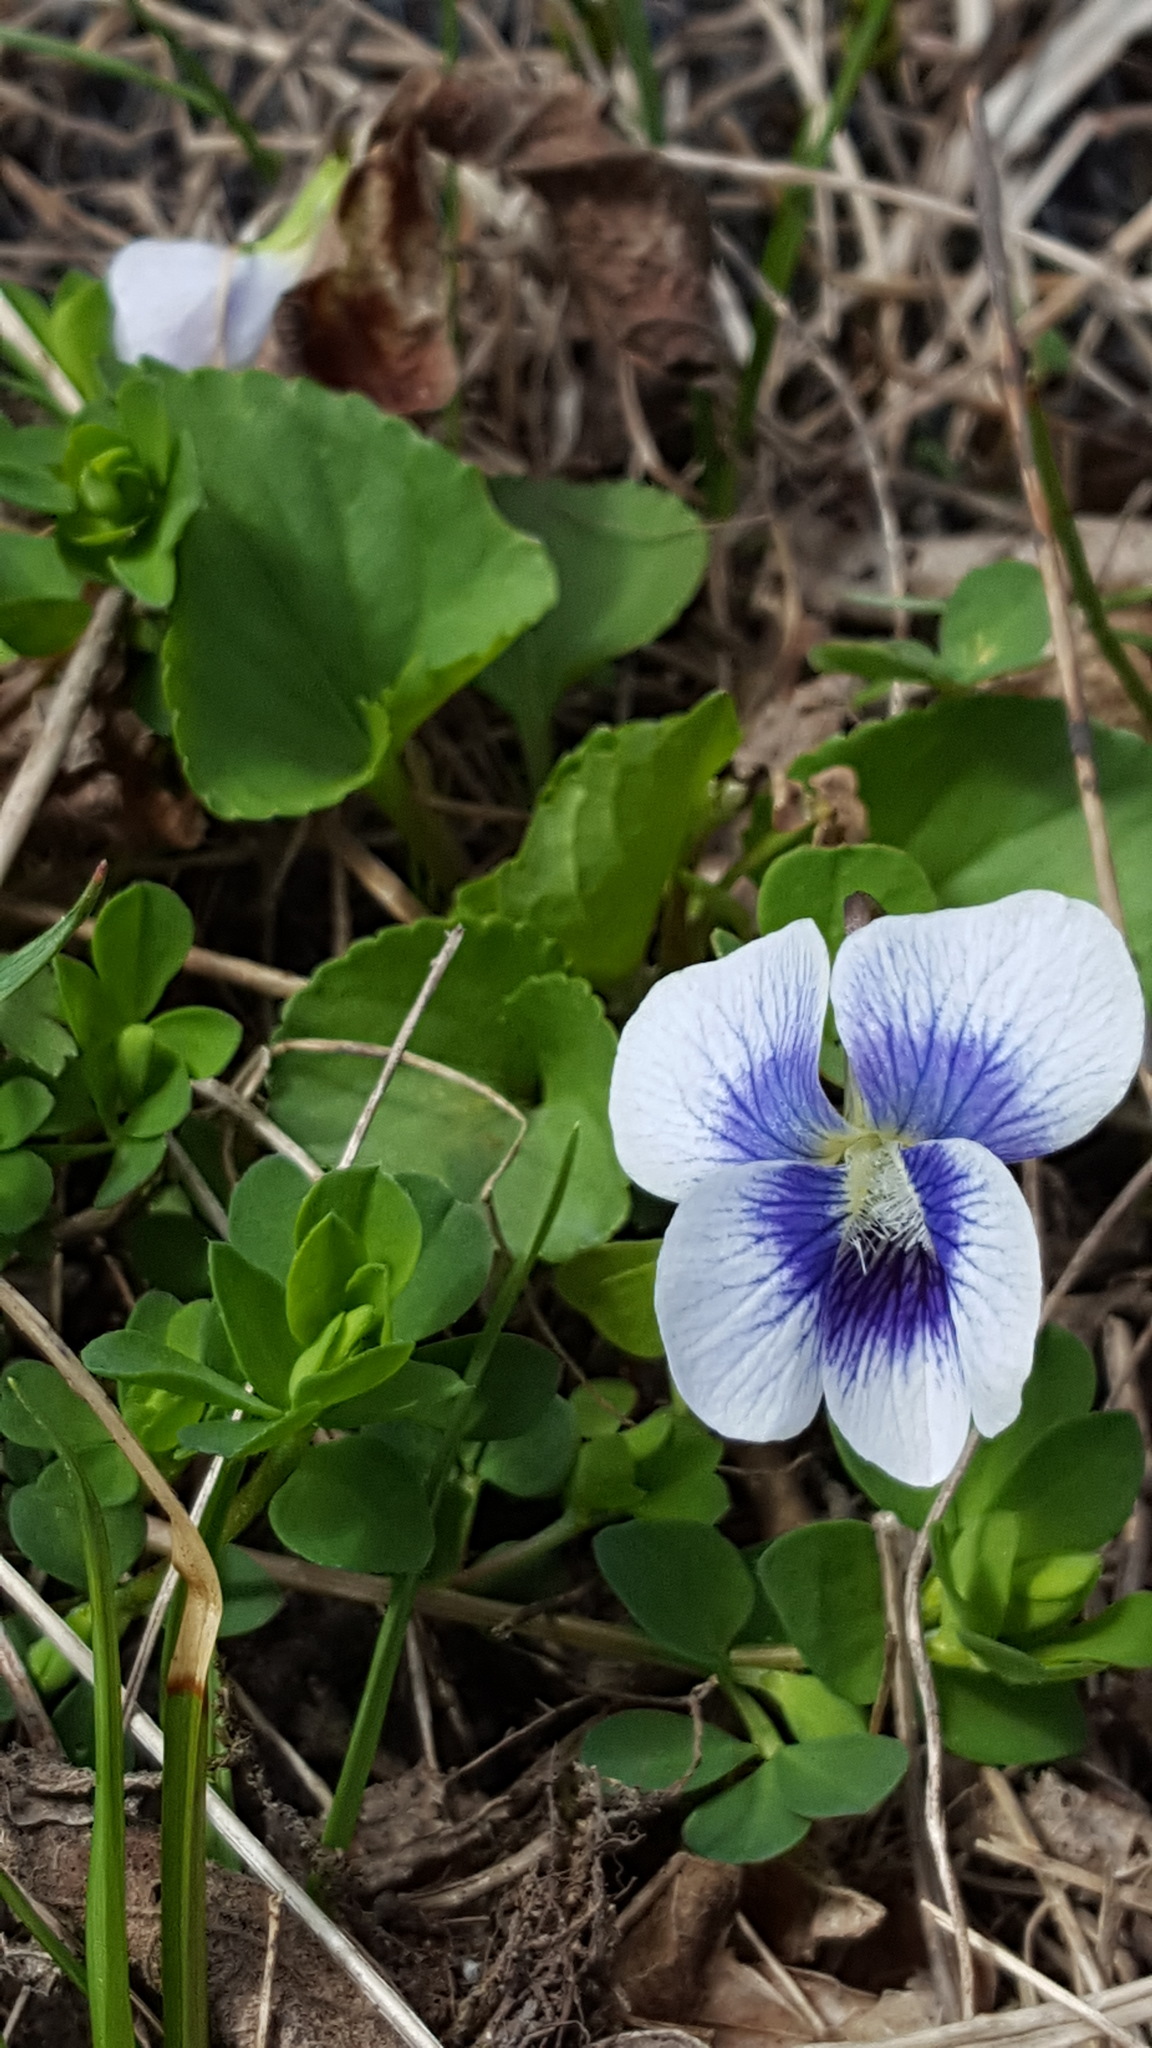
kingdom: Plantae
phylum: Tracheophyta
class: Magnoliopsida
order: Malpighiales
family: Violaceae
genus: Viola
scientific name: Viola sororia
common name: Dooryard violet
